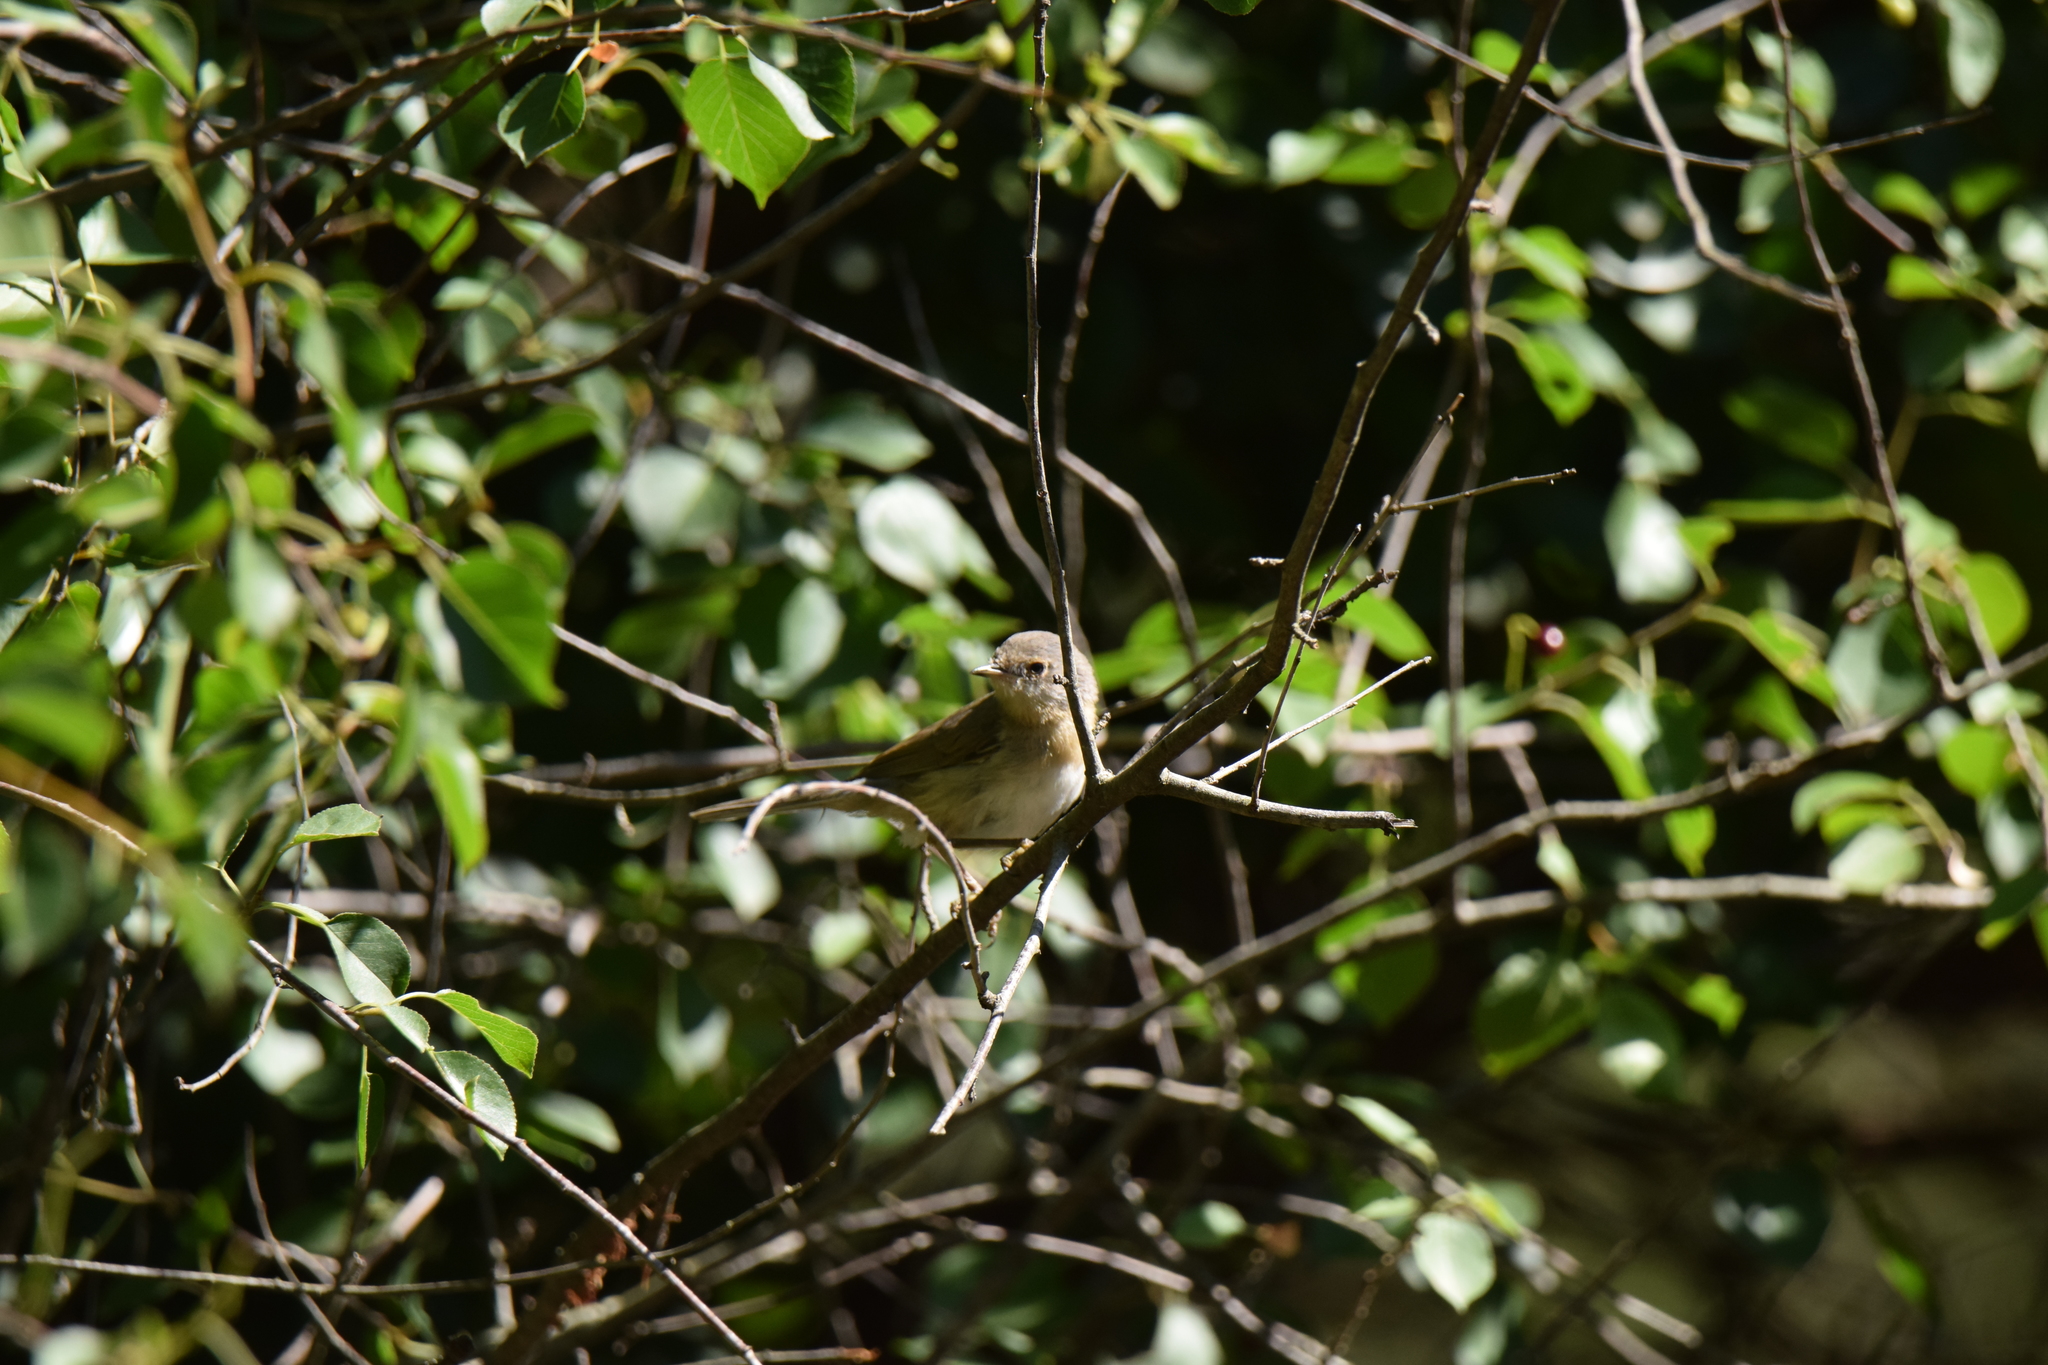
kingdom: Animalia
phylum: Chordata
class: Aves
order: Passeriformes
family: Sylviidae
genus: Curruca
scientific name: Curruca iberiae
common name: Western subalpine warbler
